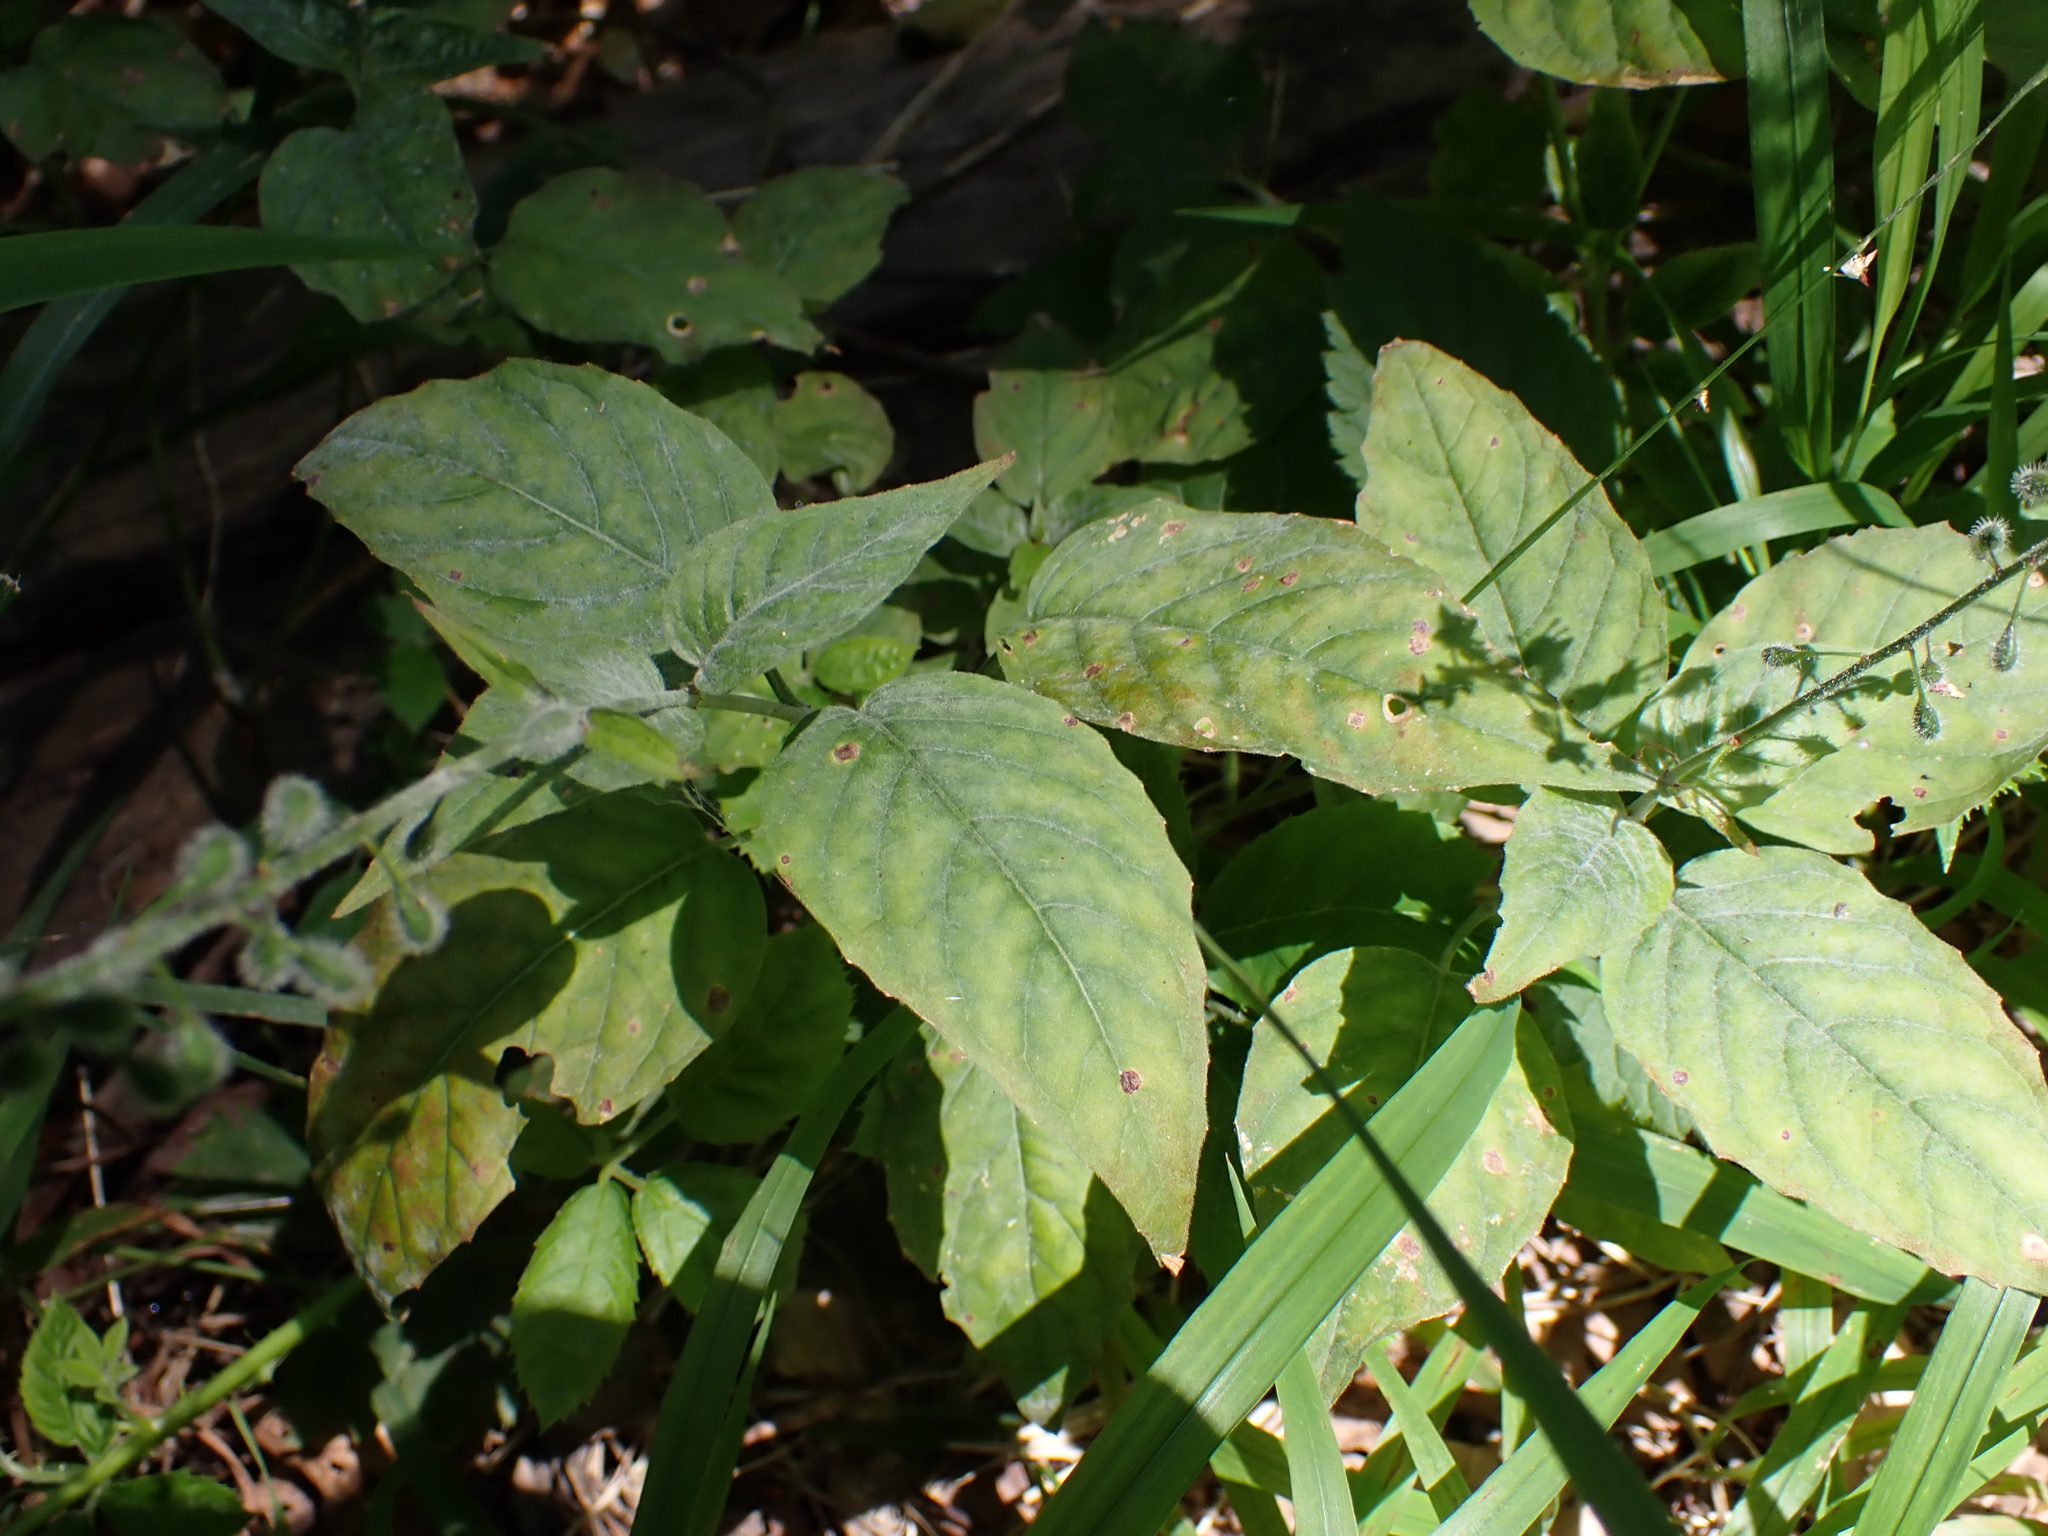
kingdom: Fungi
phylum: Basidiomycota
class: Pucciniomycetes
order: Pucciniales
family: Pucciniaceae
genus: Puccinia
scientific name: Puccinia circaeae
